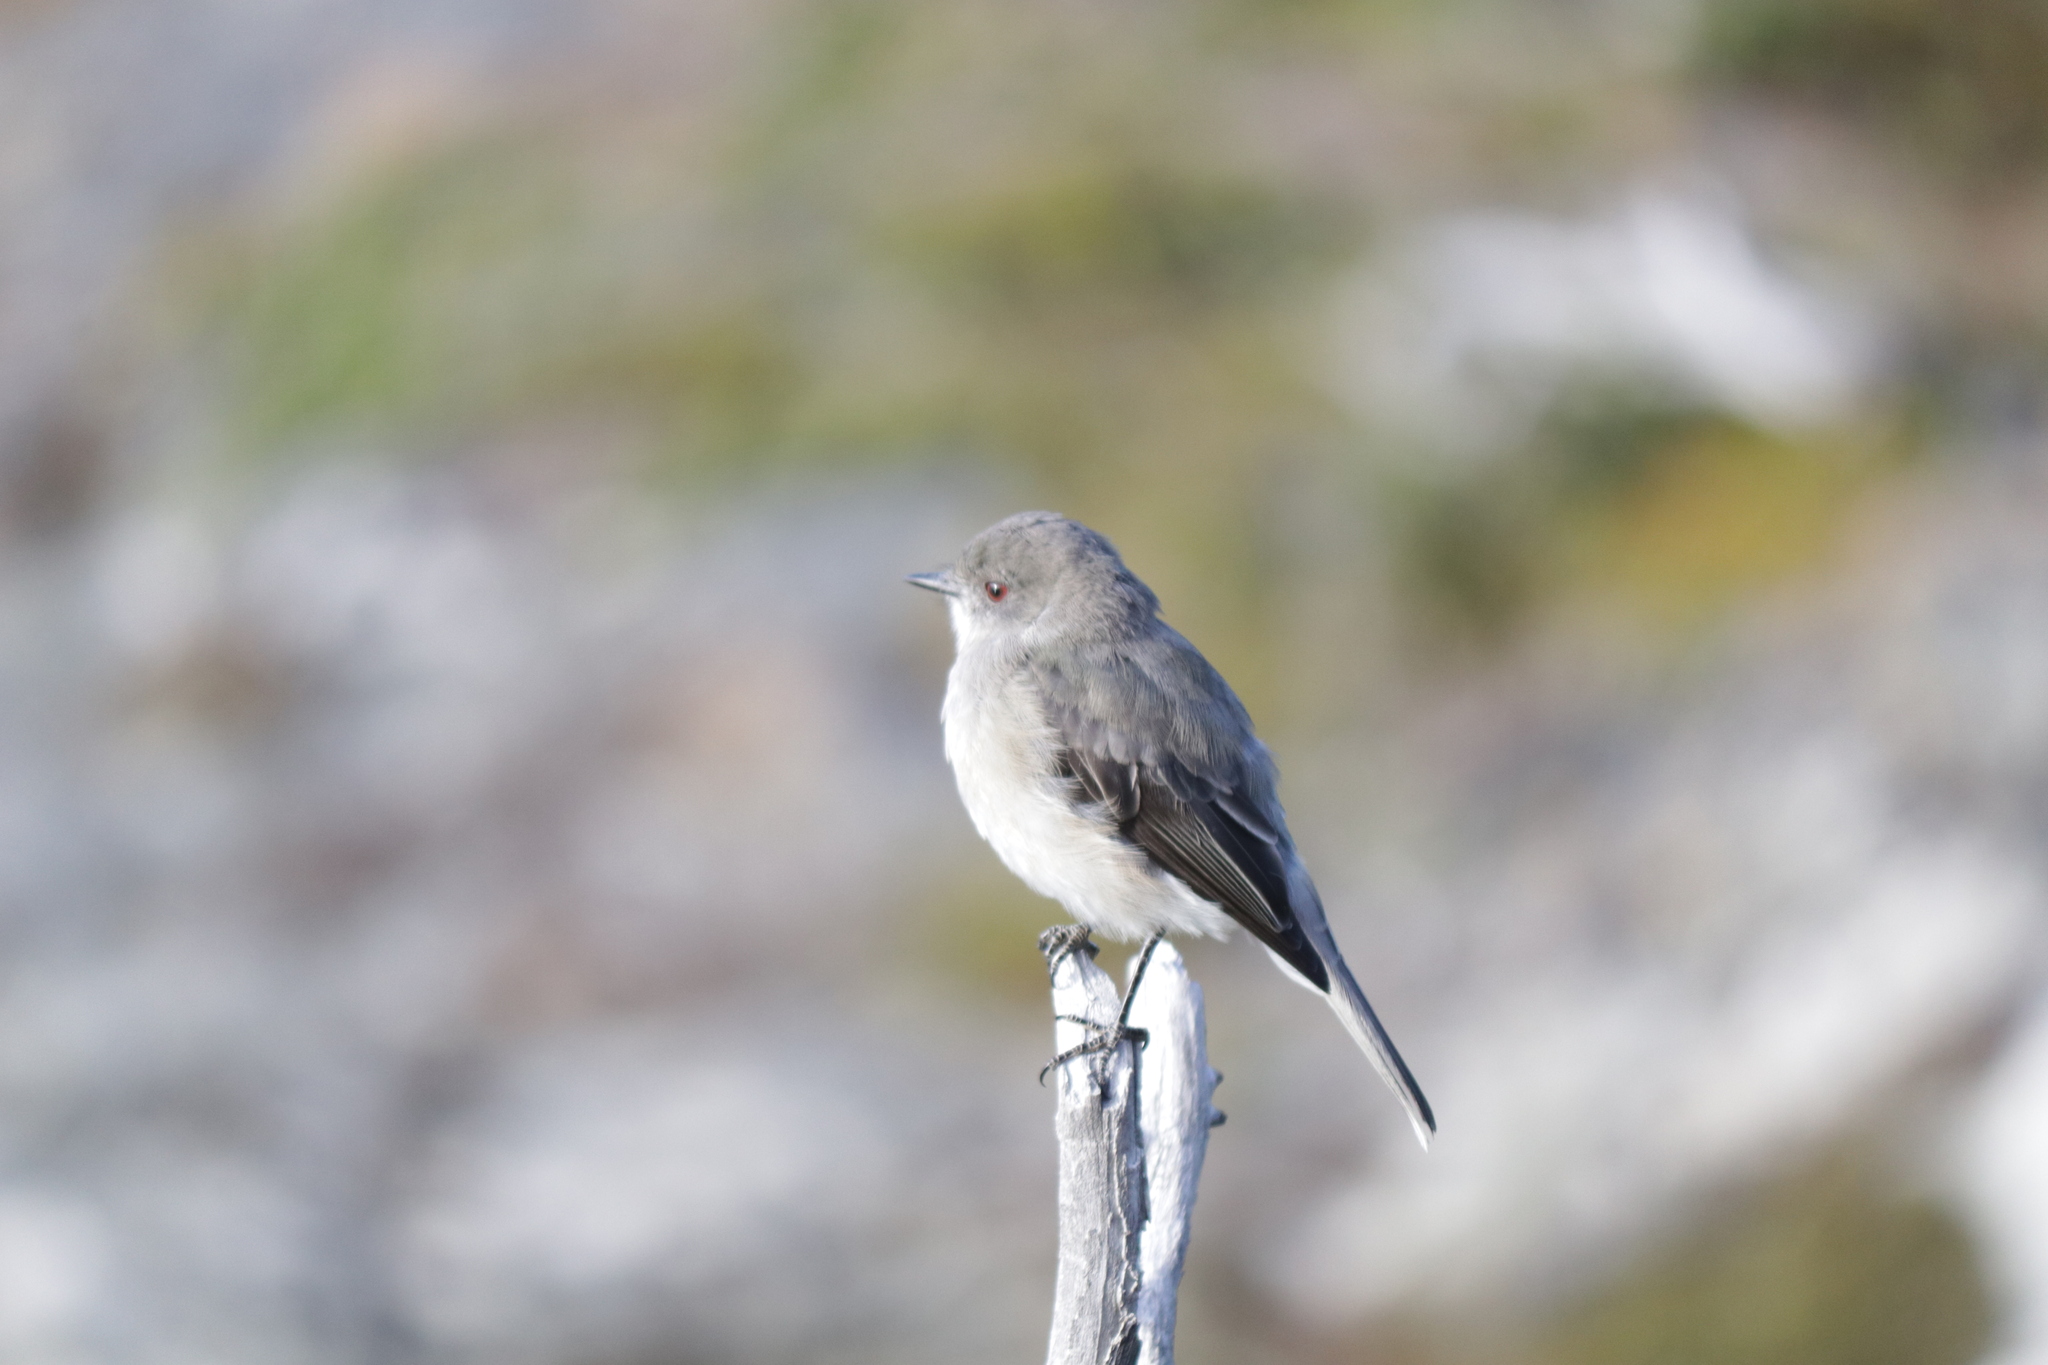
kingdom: Animalia
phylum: Chordata
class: Aves
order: Passeriformes
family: Tyrannidae
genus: Xolmis
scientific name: Xolmis pyrope
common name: Fire-eyed diucon
